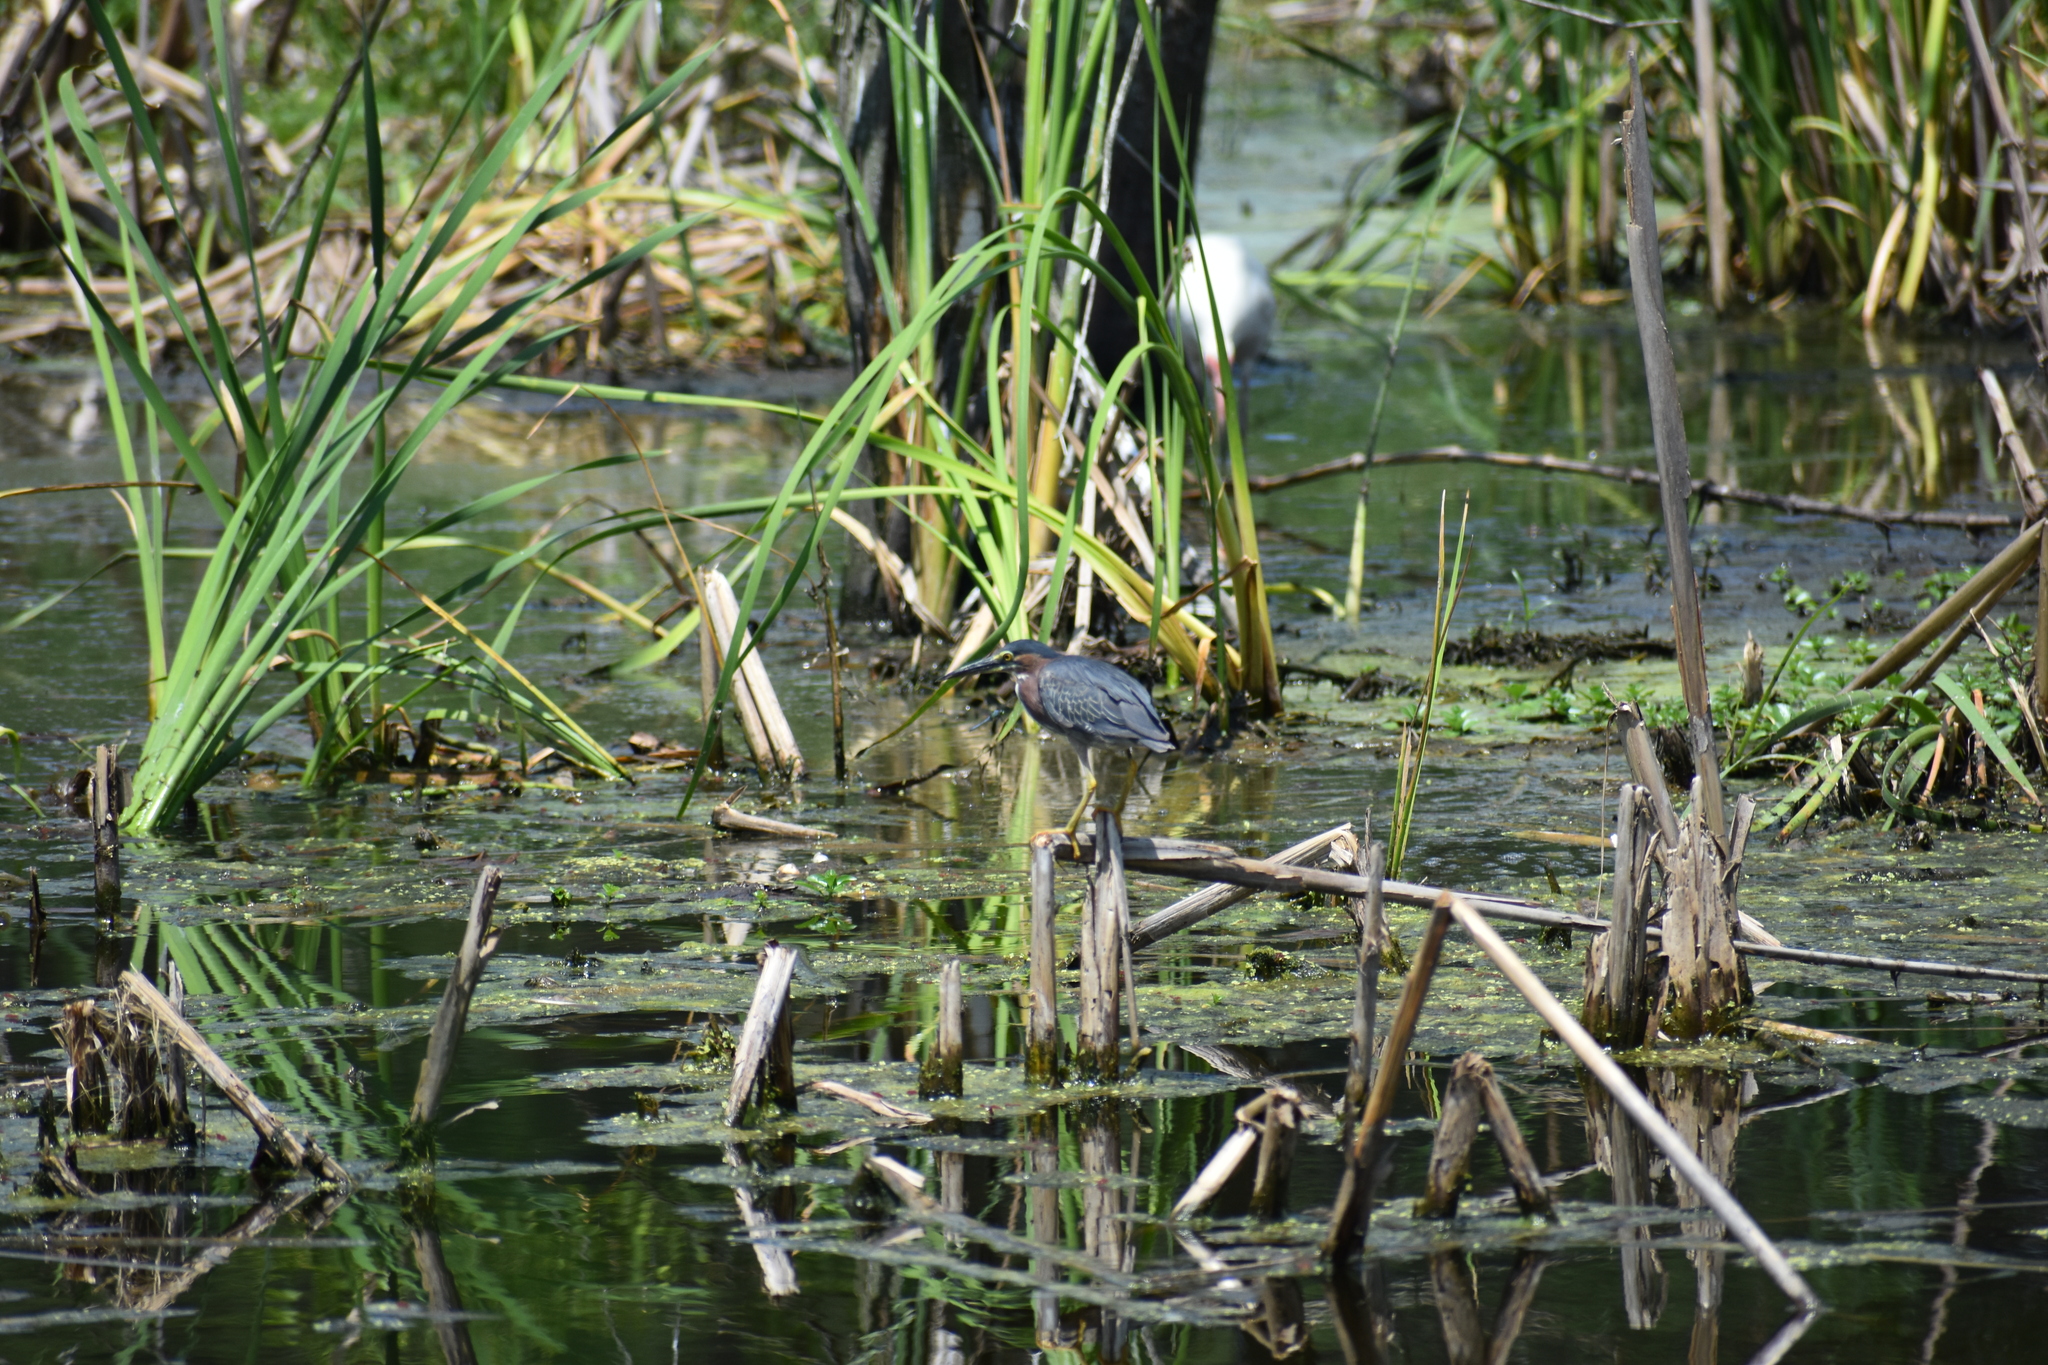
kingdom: Animalia
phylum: Chordata
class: Aves
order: Pelecaniformes
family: Ardeidae
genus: Butorides
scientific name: Butorides virescens
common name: Green heron
